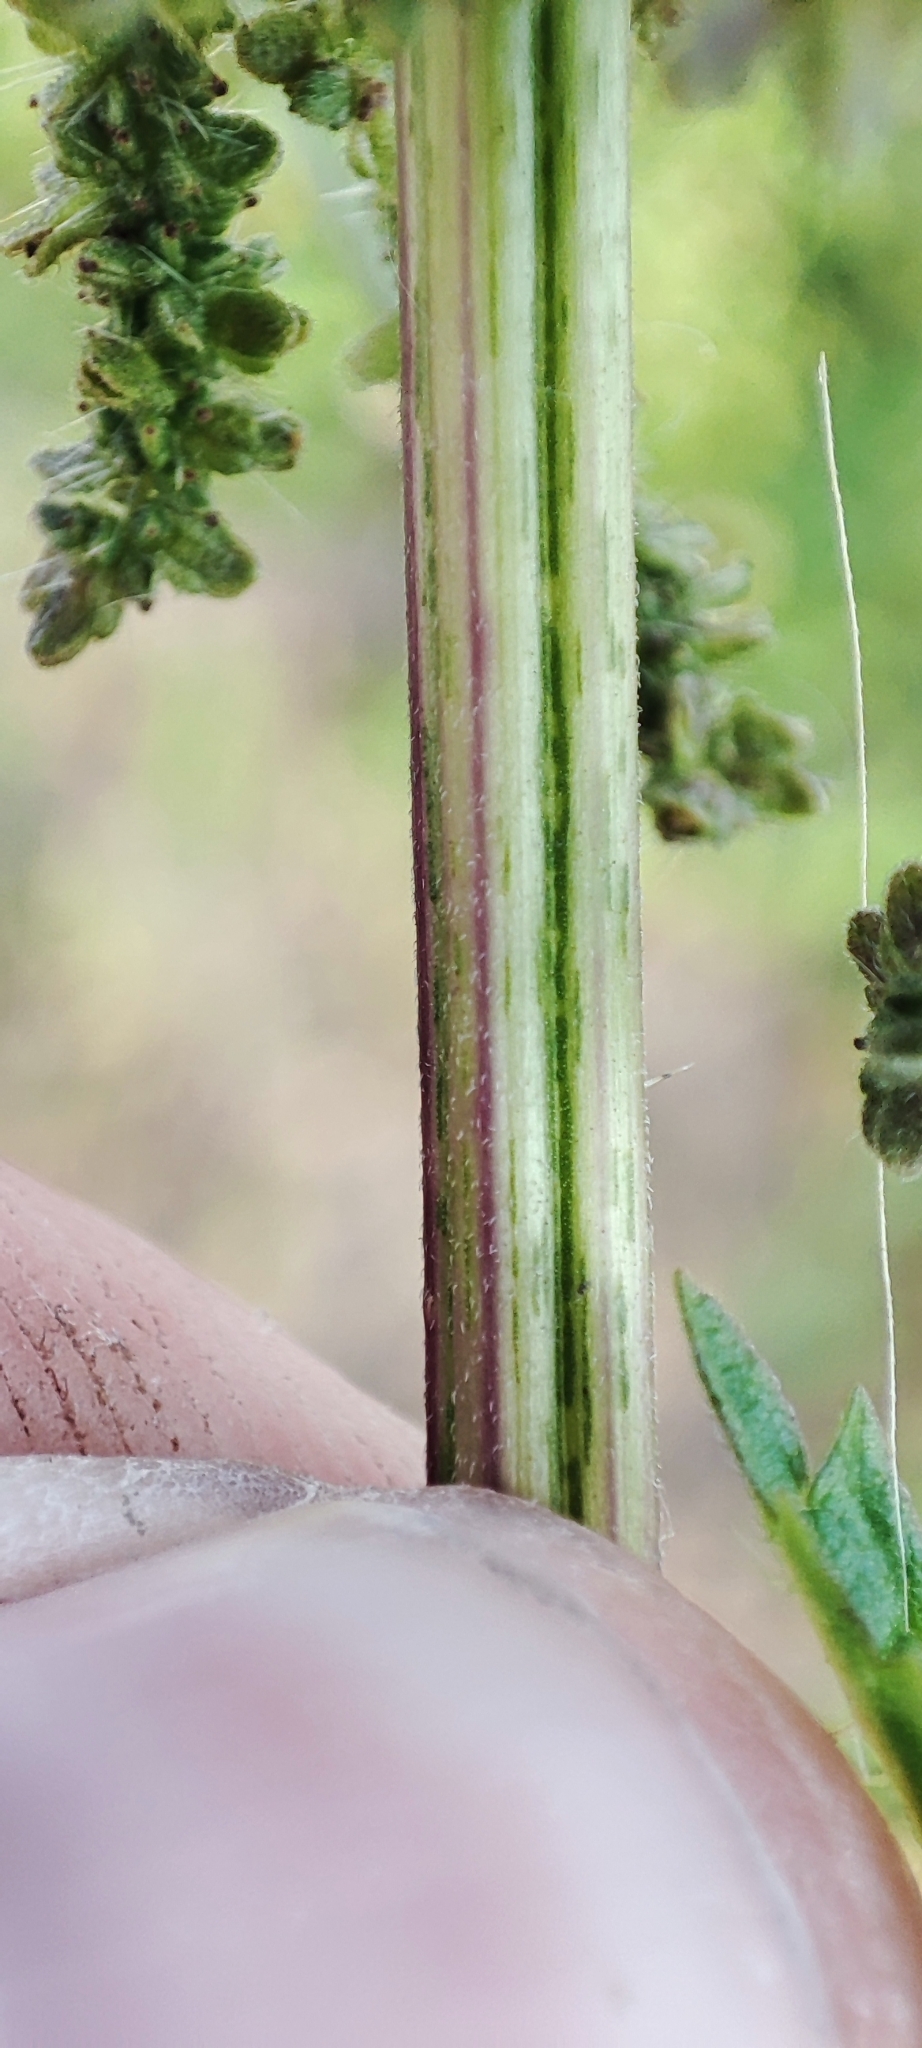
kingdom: Plantae
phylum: Tracheophyta
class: Magnoliopsida
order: Rosales
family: Urticaceae
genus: Urtica
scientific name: Urtica galeopsifolia
